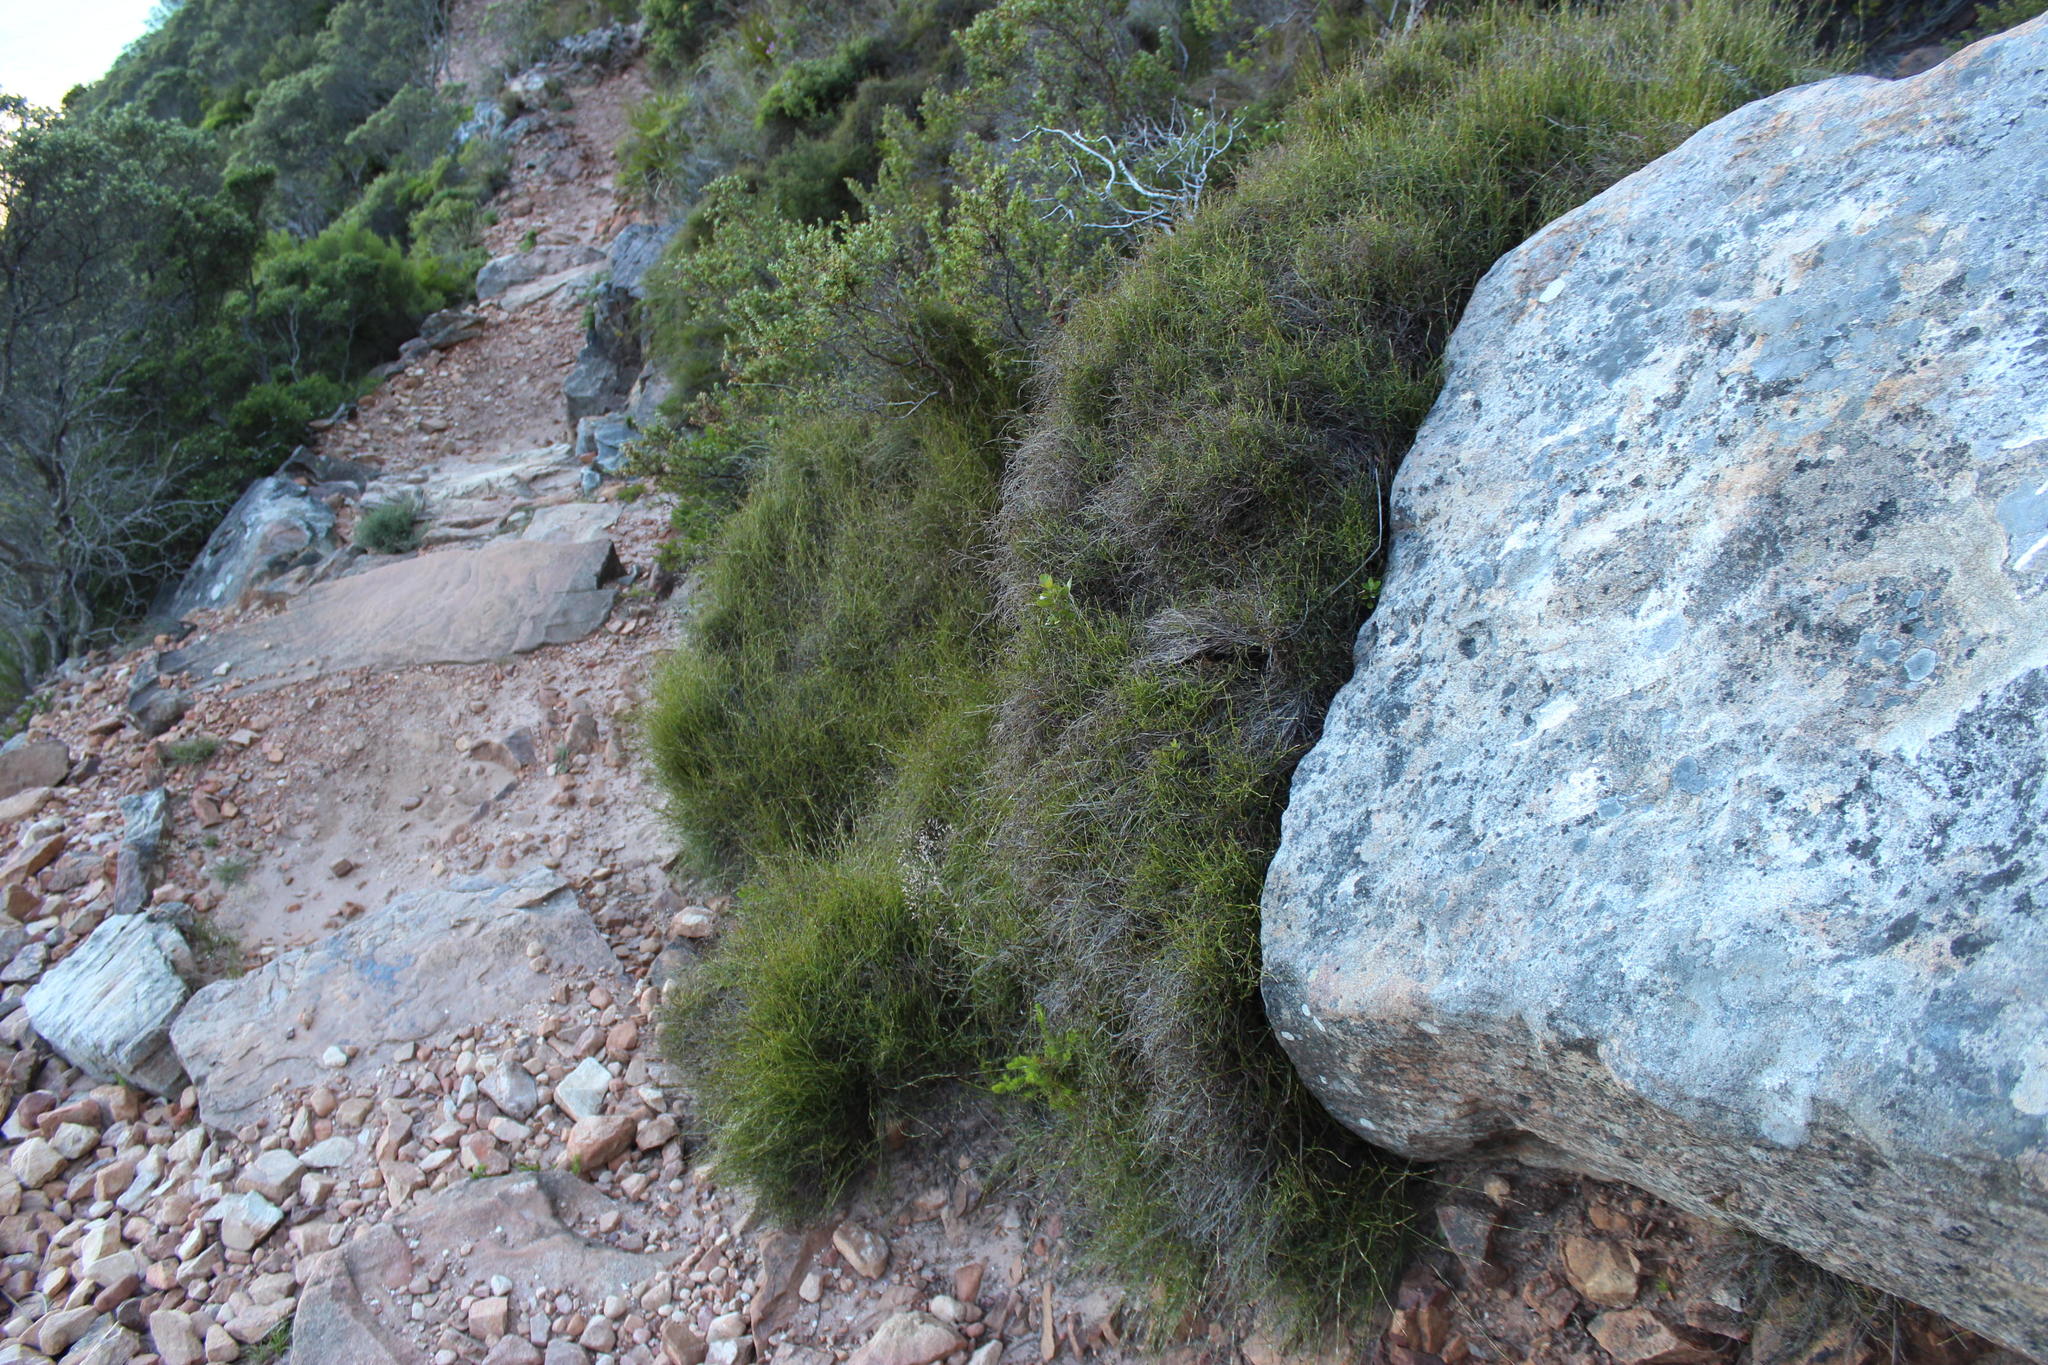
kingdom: Plantae
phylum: Tracheophyta
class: Liliopsida
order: Poales
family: Restionaceae
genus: Restio
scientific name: Restio perplexus
